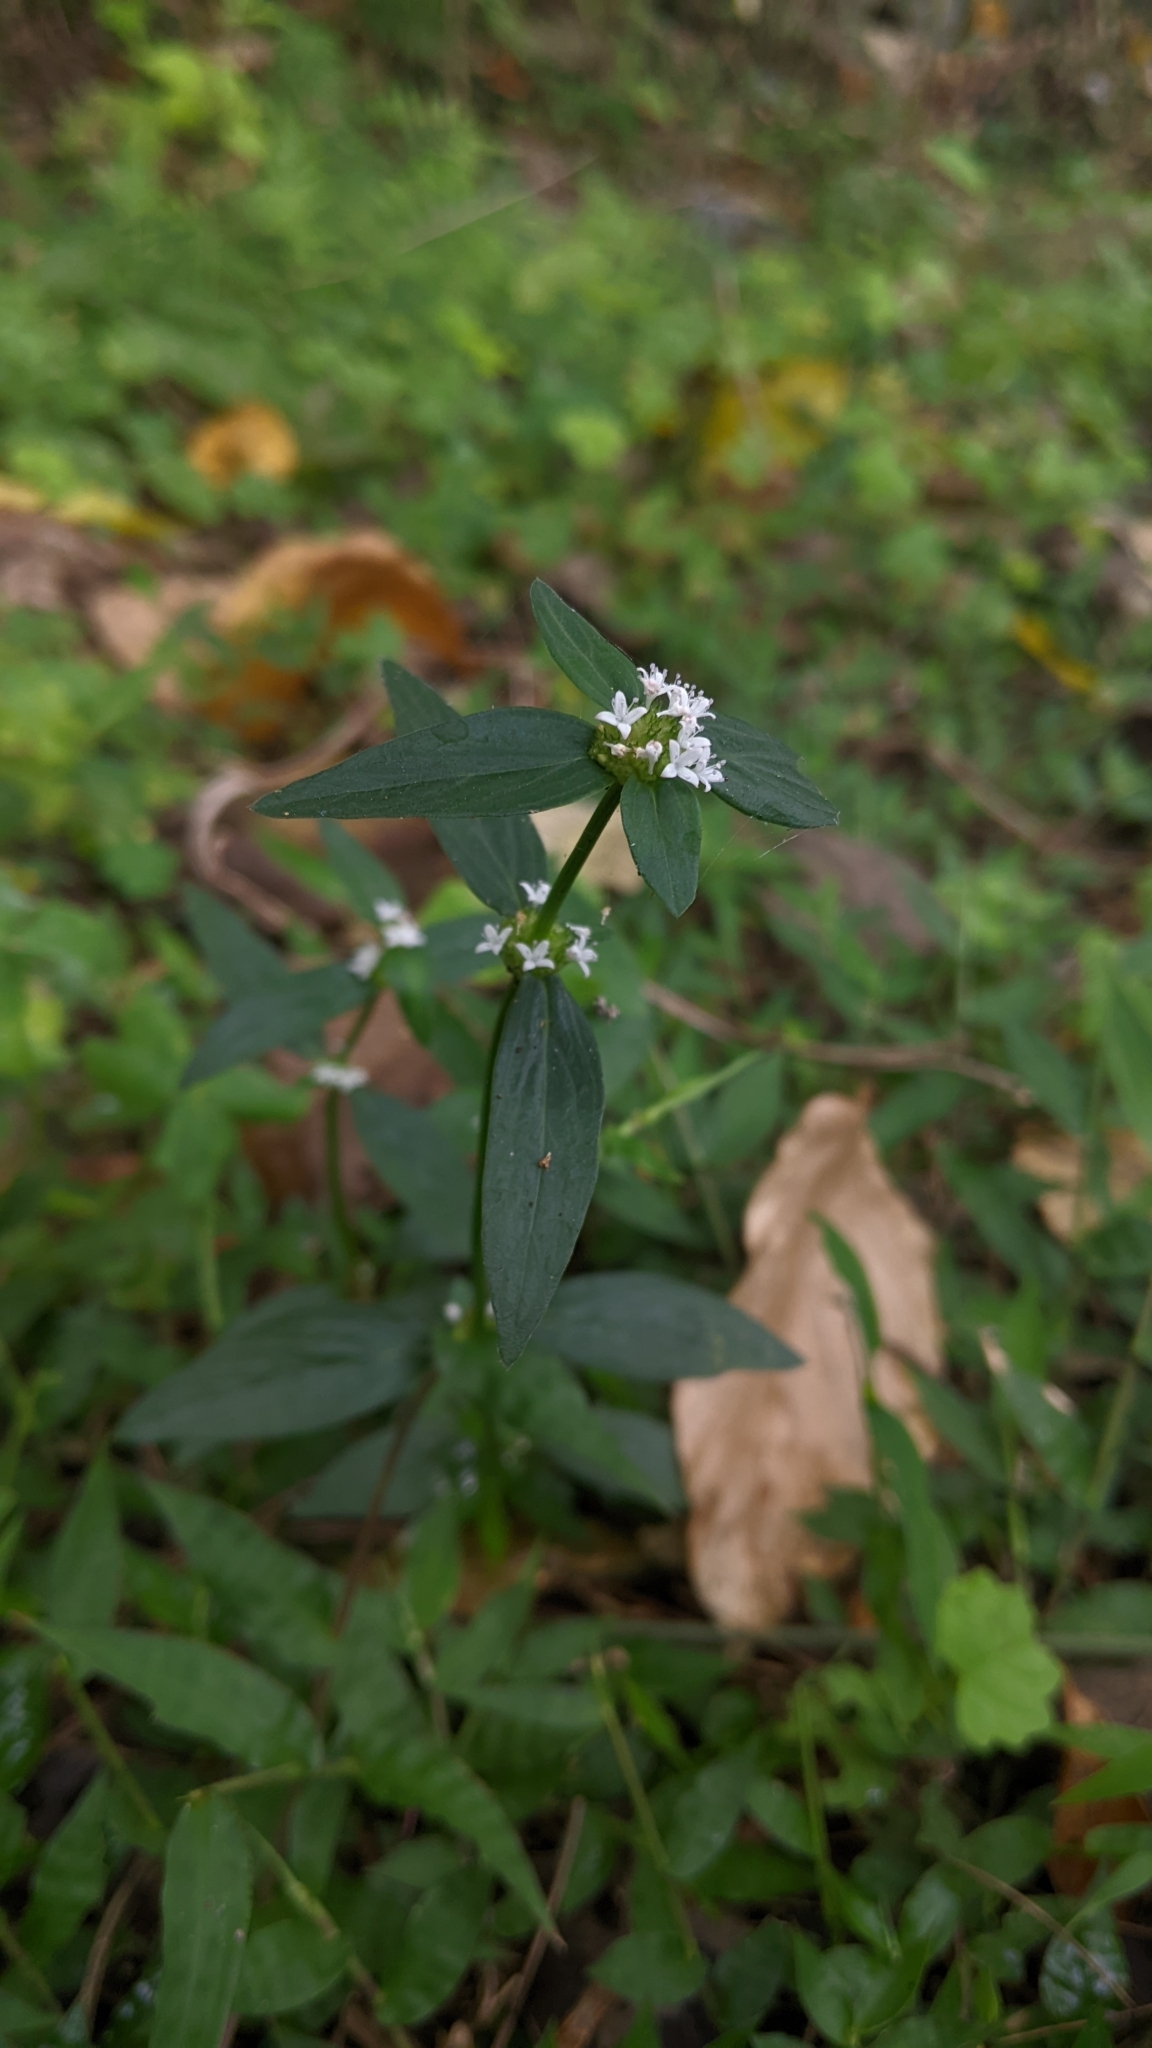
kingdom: Plantae
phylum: Tracheophyta
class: Magnoliopsida
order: Gentianales
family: Rubiaceae
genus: Spermacoce
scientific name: Spermacoce remota
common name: Woodland false buttonweed
